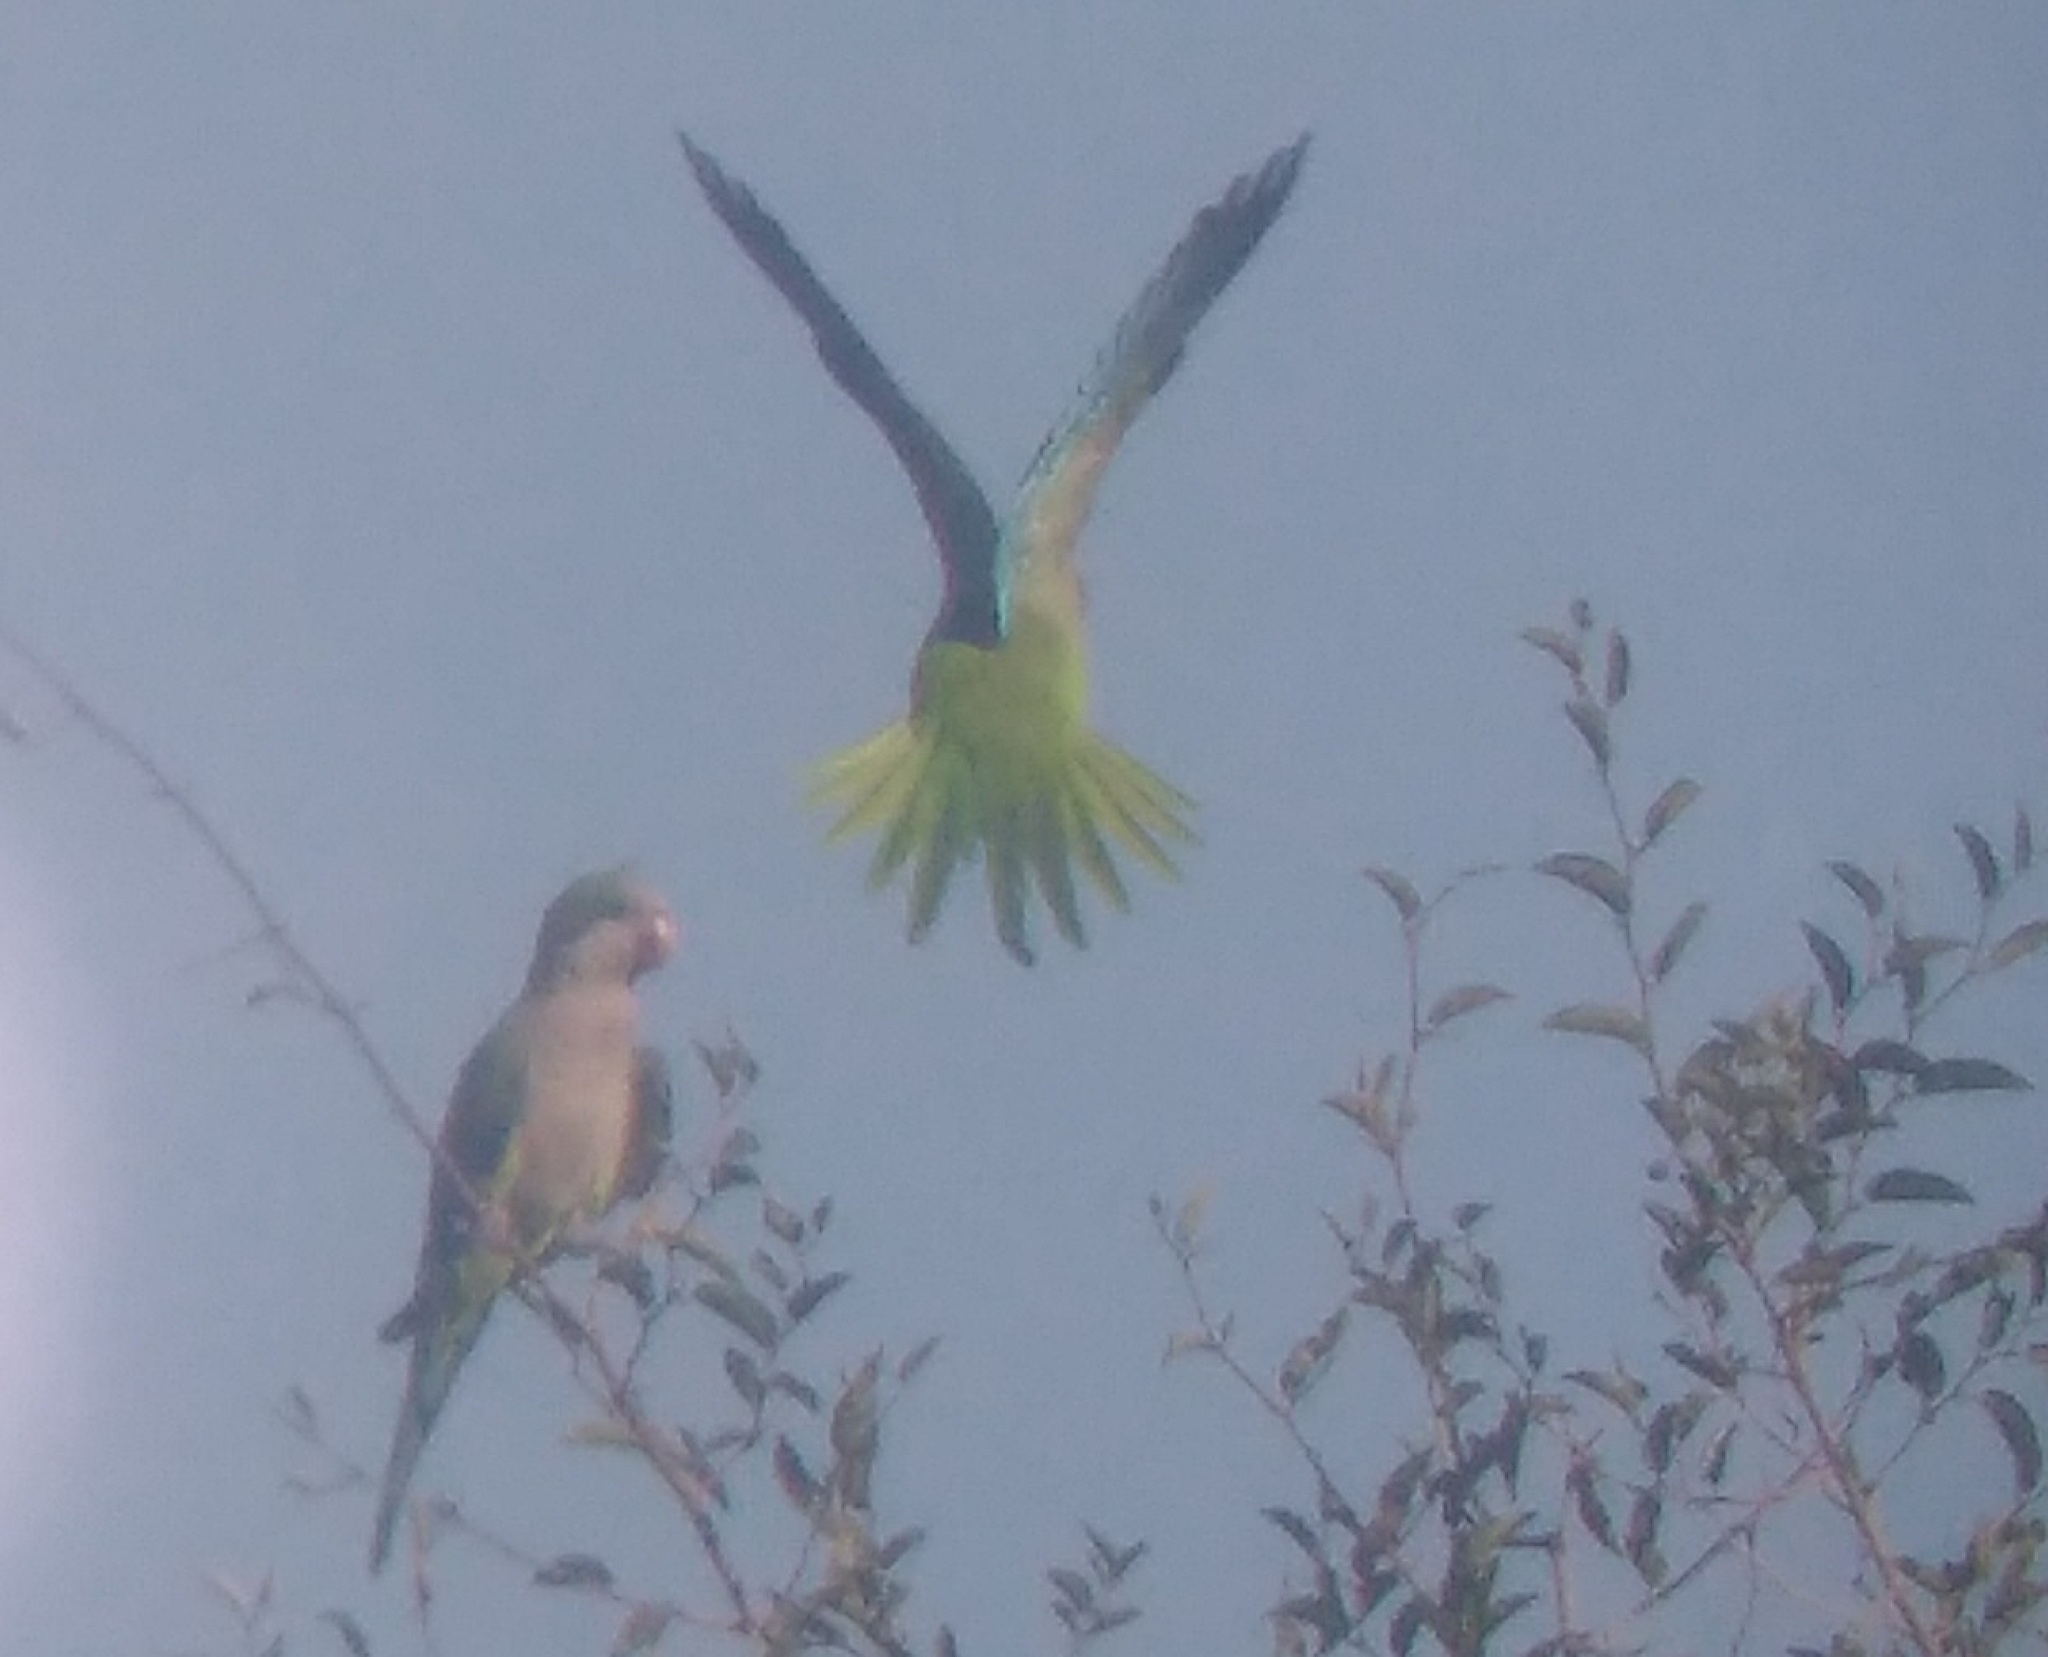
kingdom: Animalia
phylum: Chordata
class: Aves
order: Psittaciformes
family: Psittacidae
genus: Myiopsitta
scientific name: Myiopsitta monachus
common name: Monk parakeet
